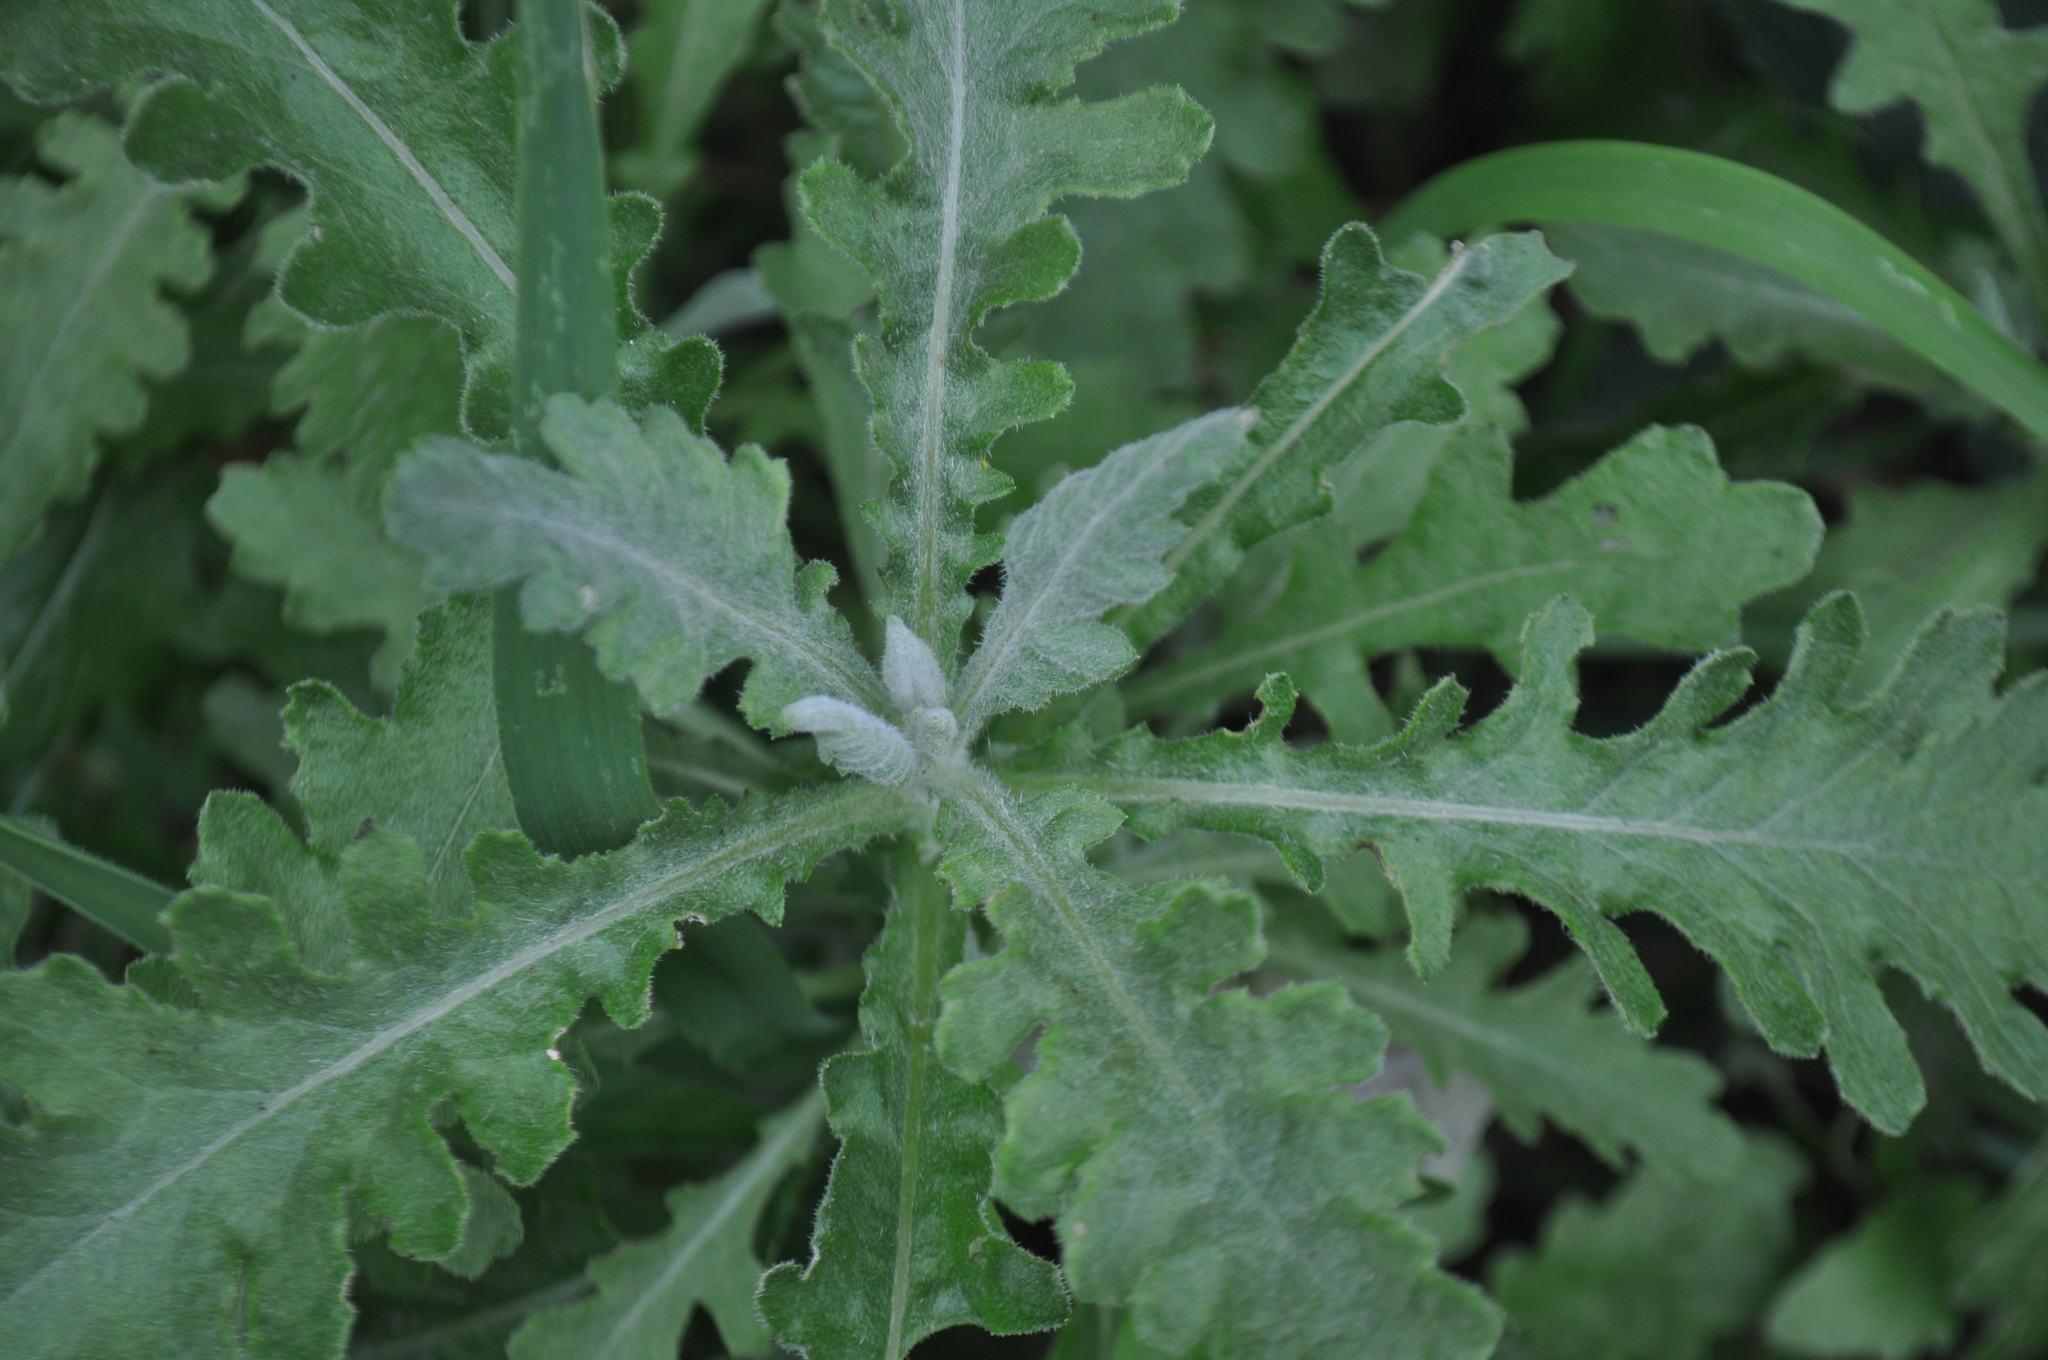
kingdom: Plantae
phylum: Tracheophyta
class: Magnoliopsida
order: Asterales
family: Asteraceae
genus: Senecio
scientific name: Senecio glomeratus
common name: Cutleaf burnweed
